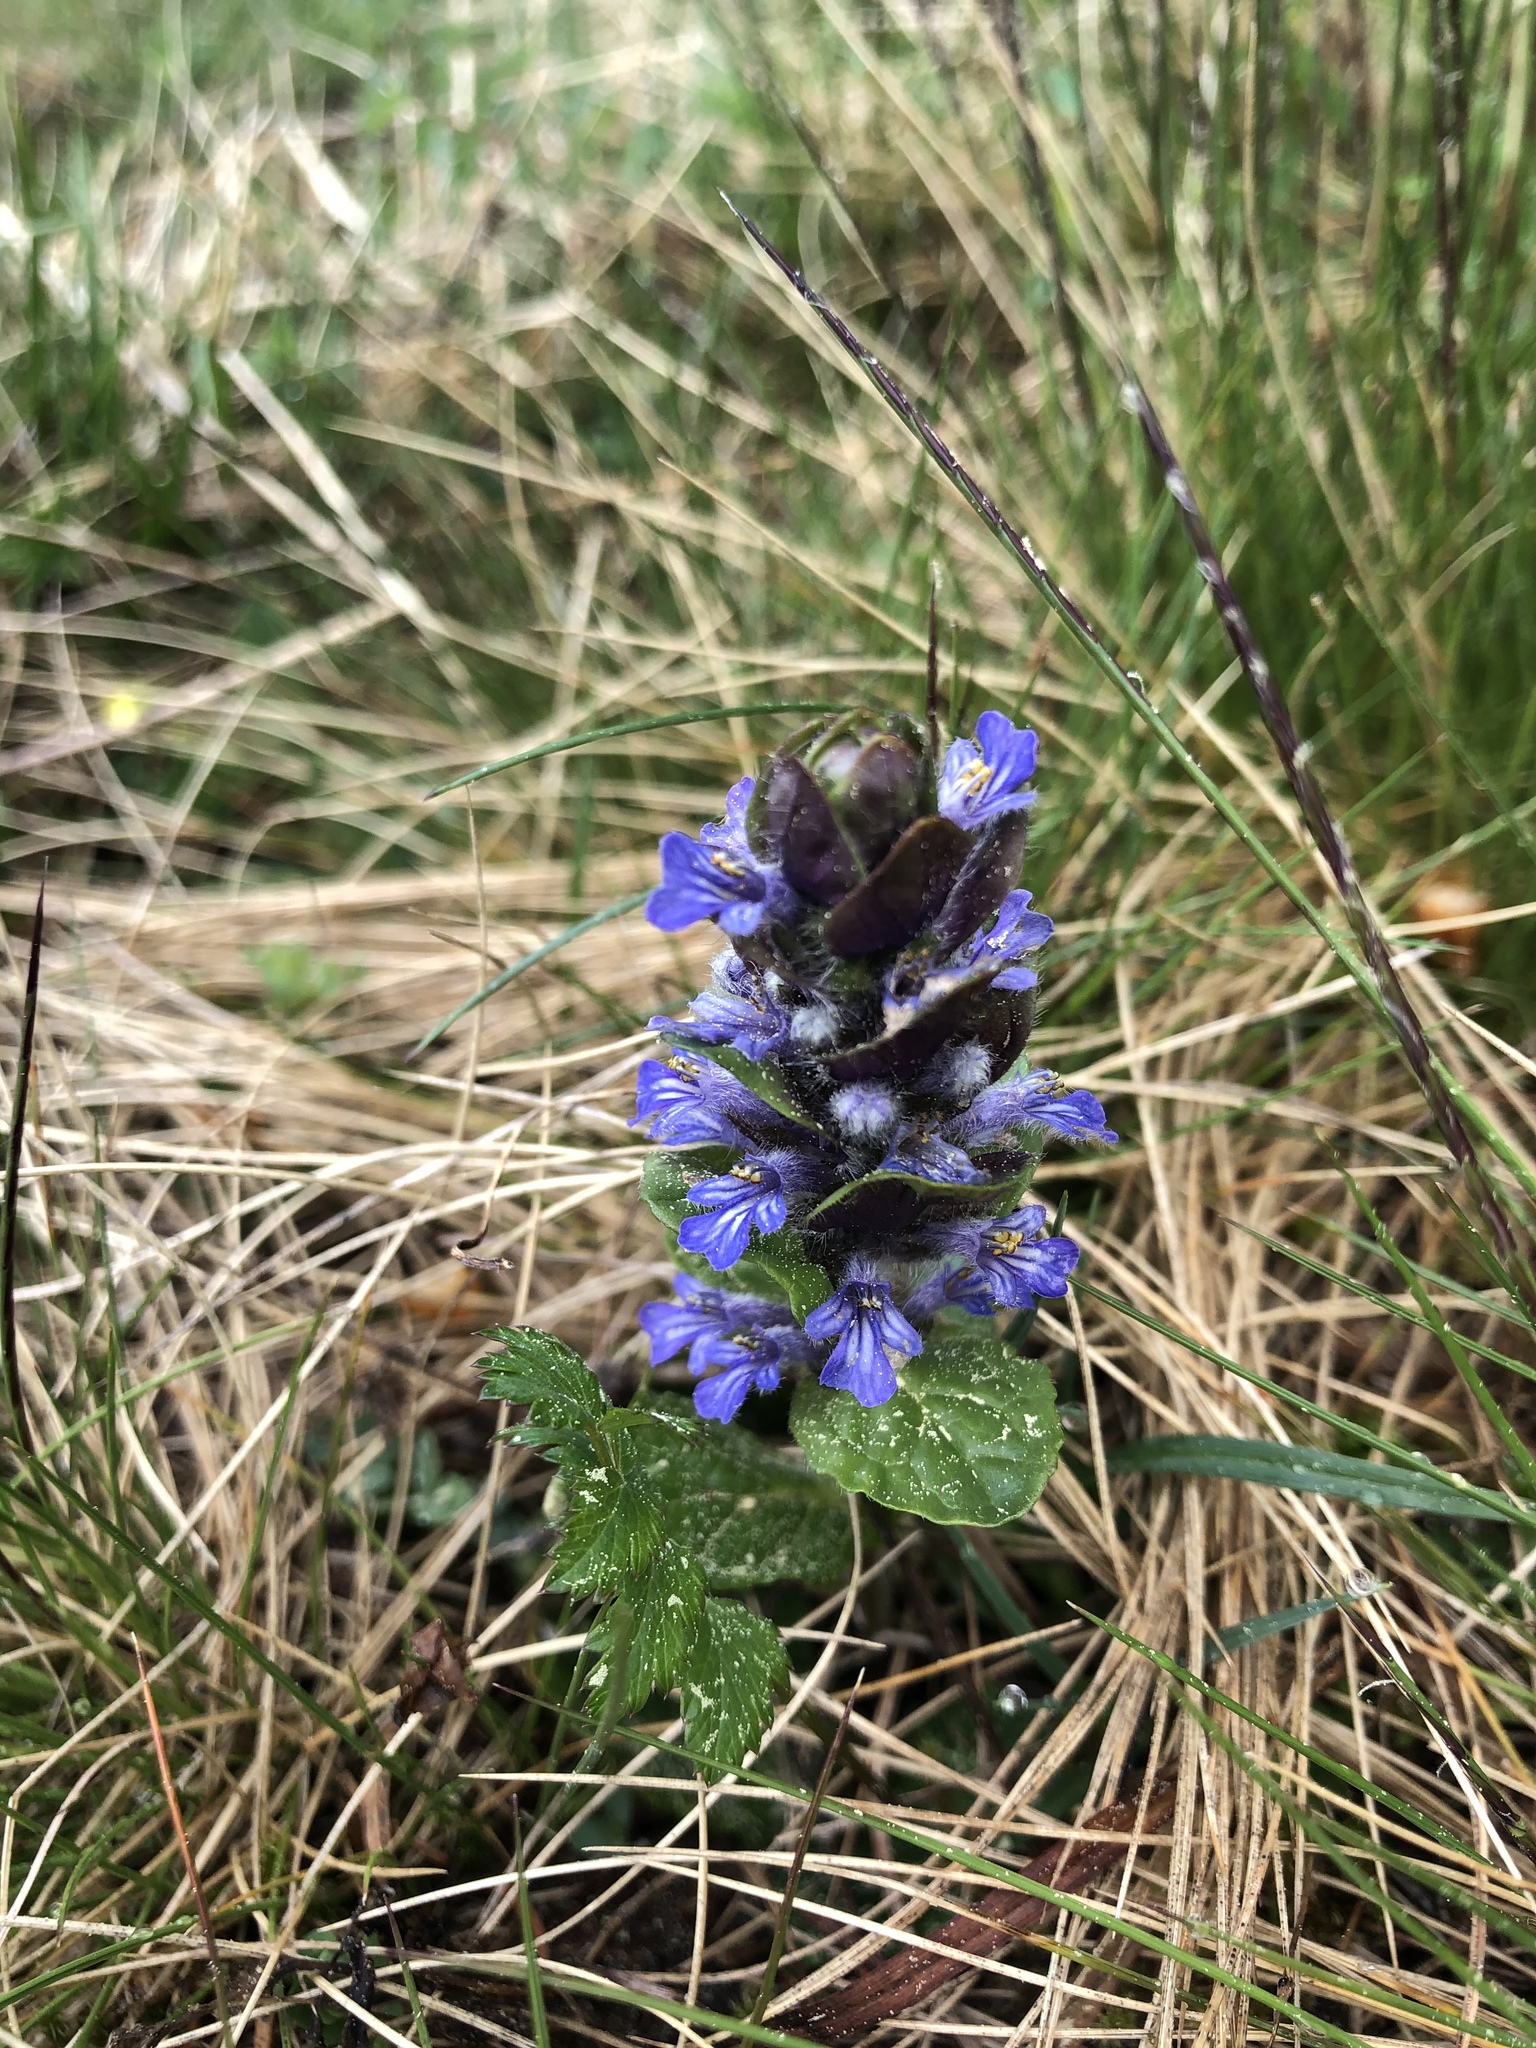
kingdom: Plantae
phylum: Tracheophyta
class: Magnoliopsida
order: Lamiales
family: Lamiaceae
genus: Ajuga
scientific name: Ajuga reptans
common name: Bugle
